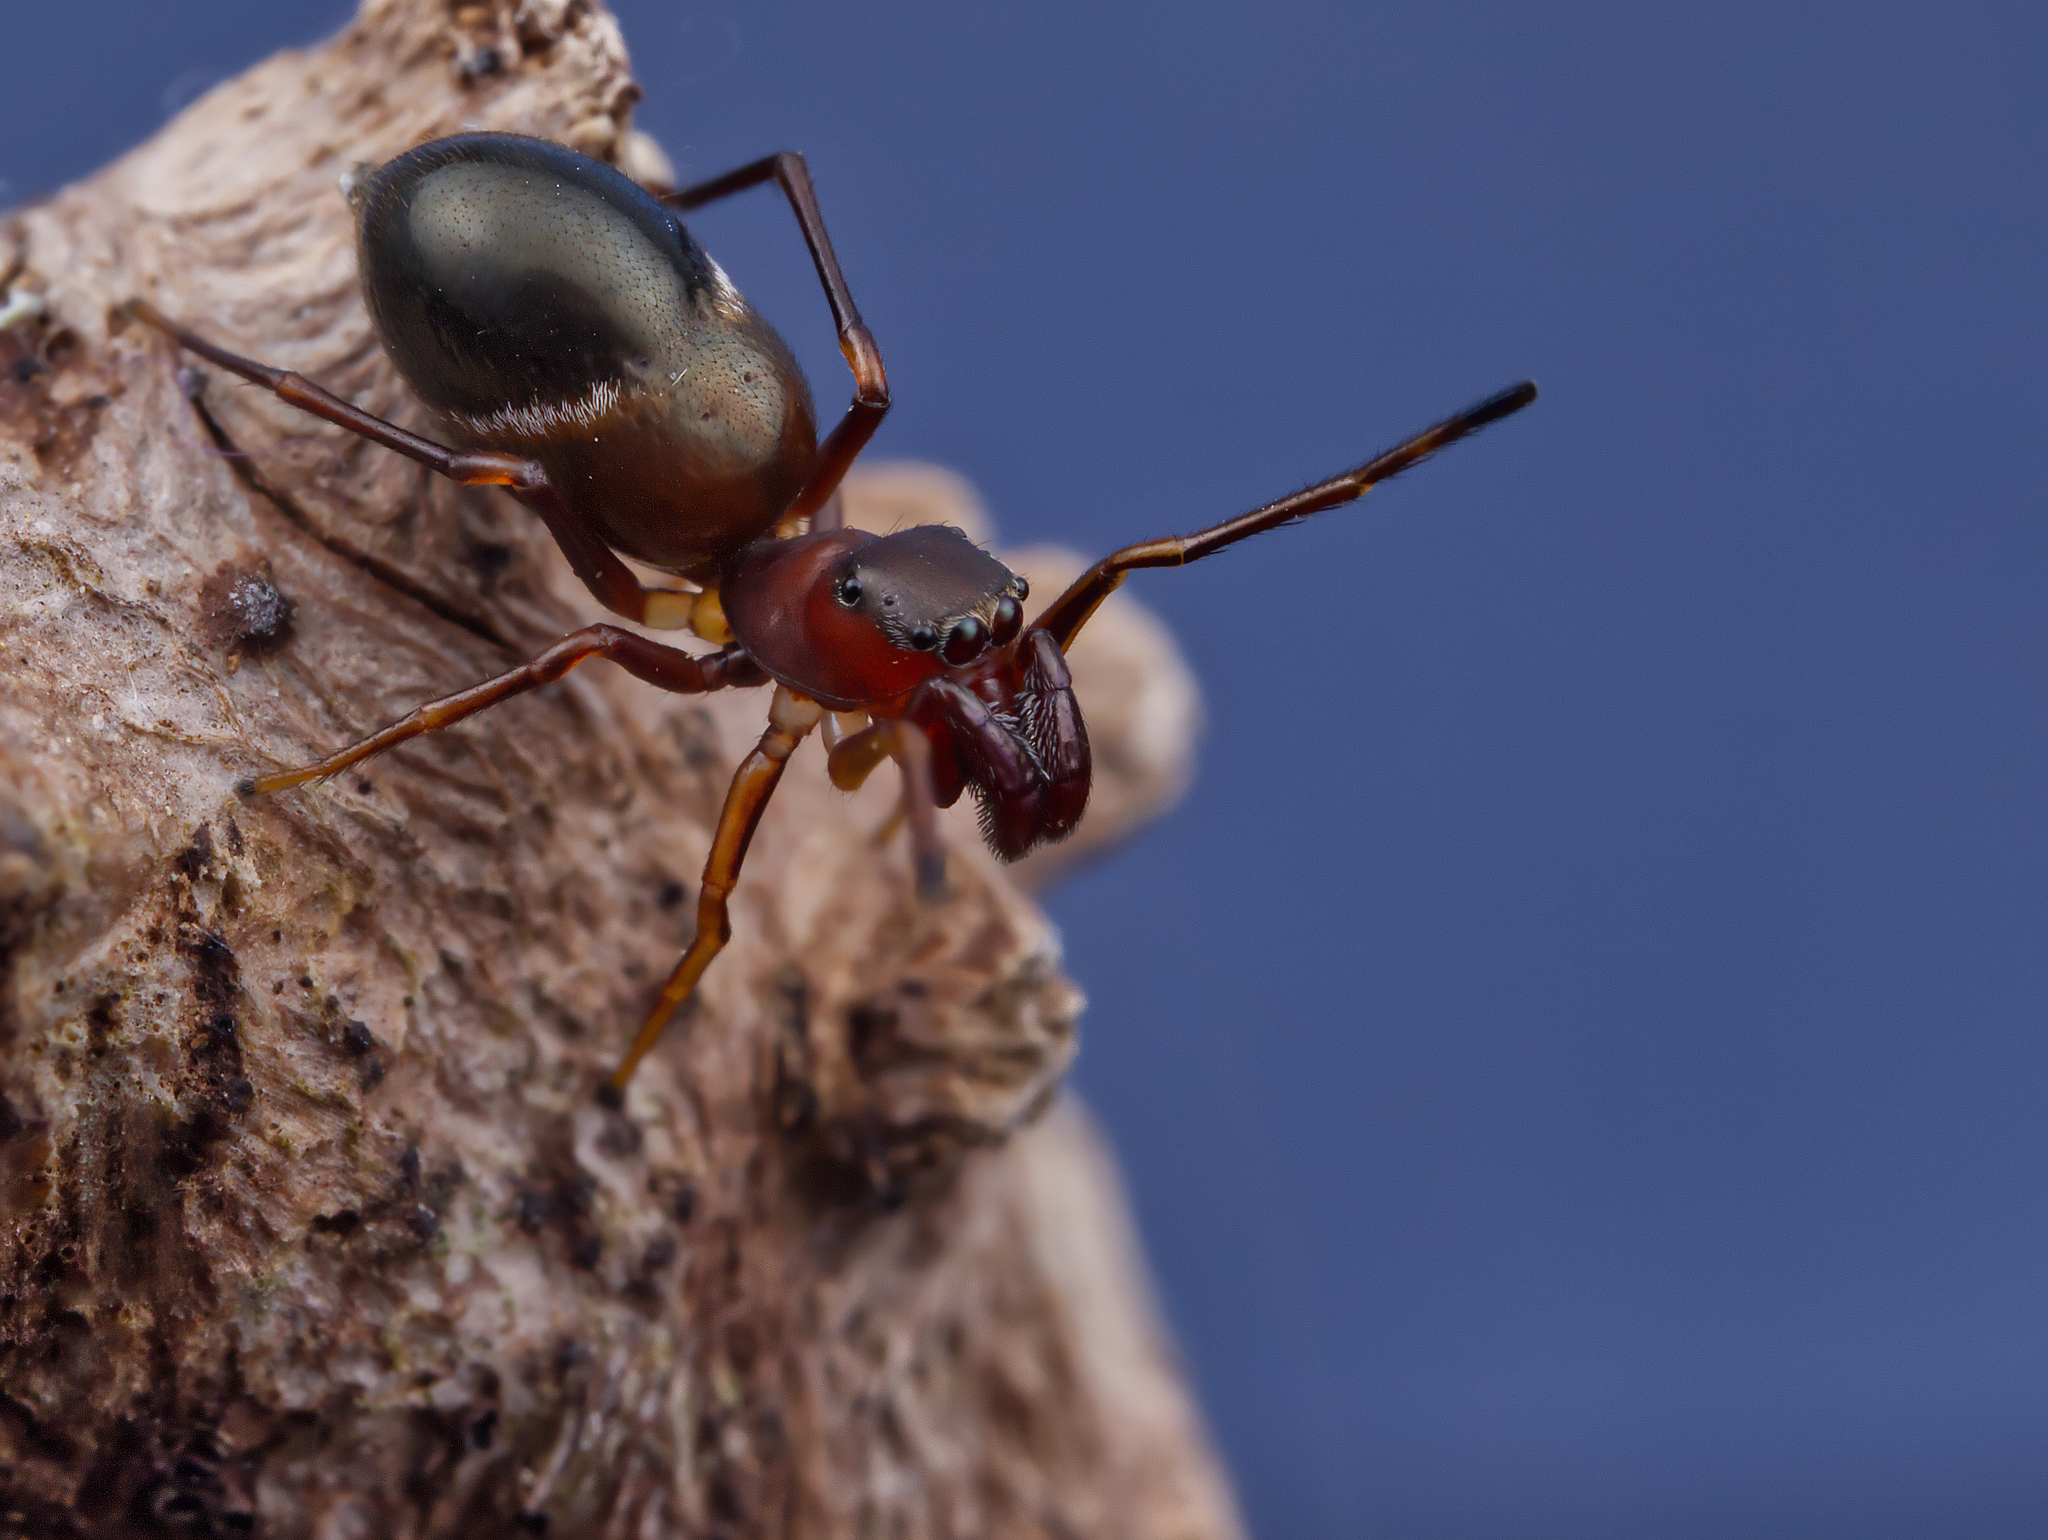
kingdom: Animalia
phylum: Arthropoda
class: Arachnida
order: Araneae
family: Salticidae
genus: Sarinda
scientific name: Sarinda hentzi
